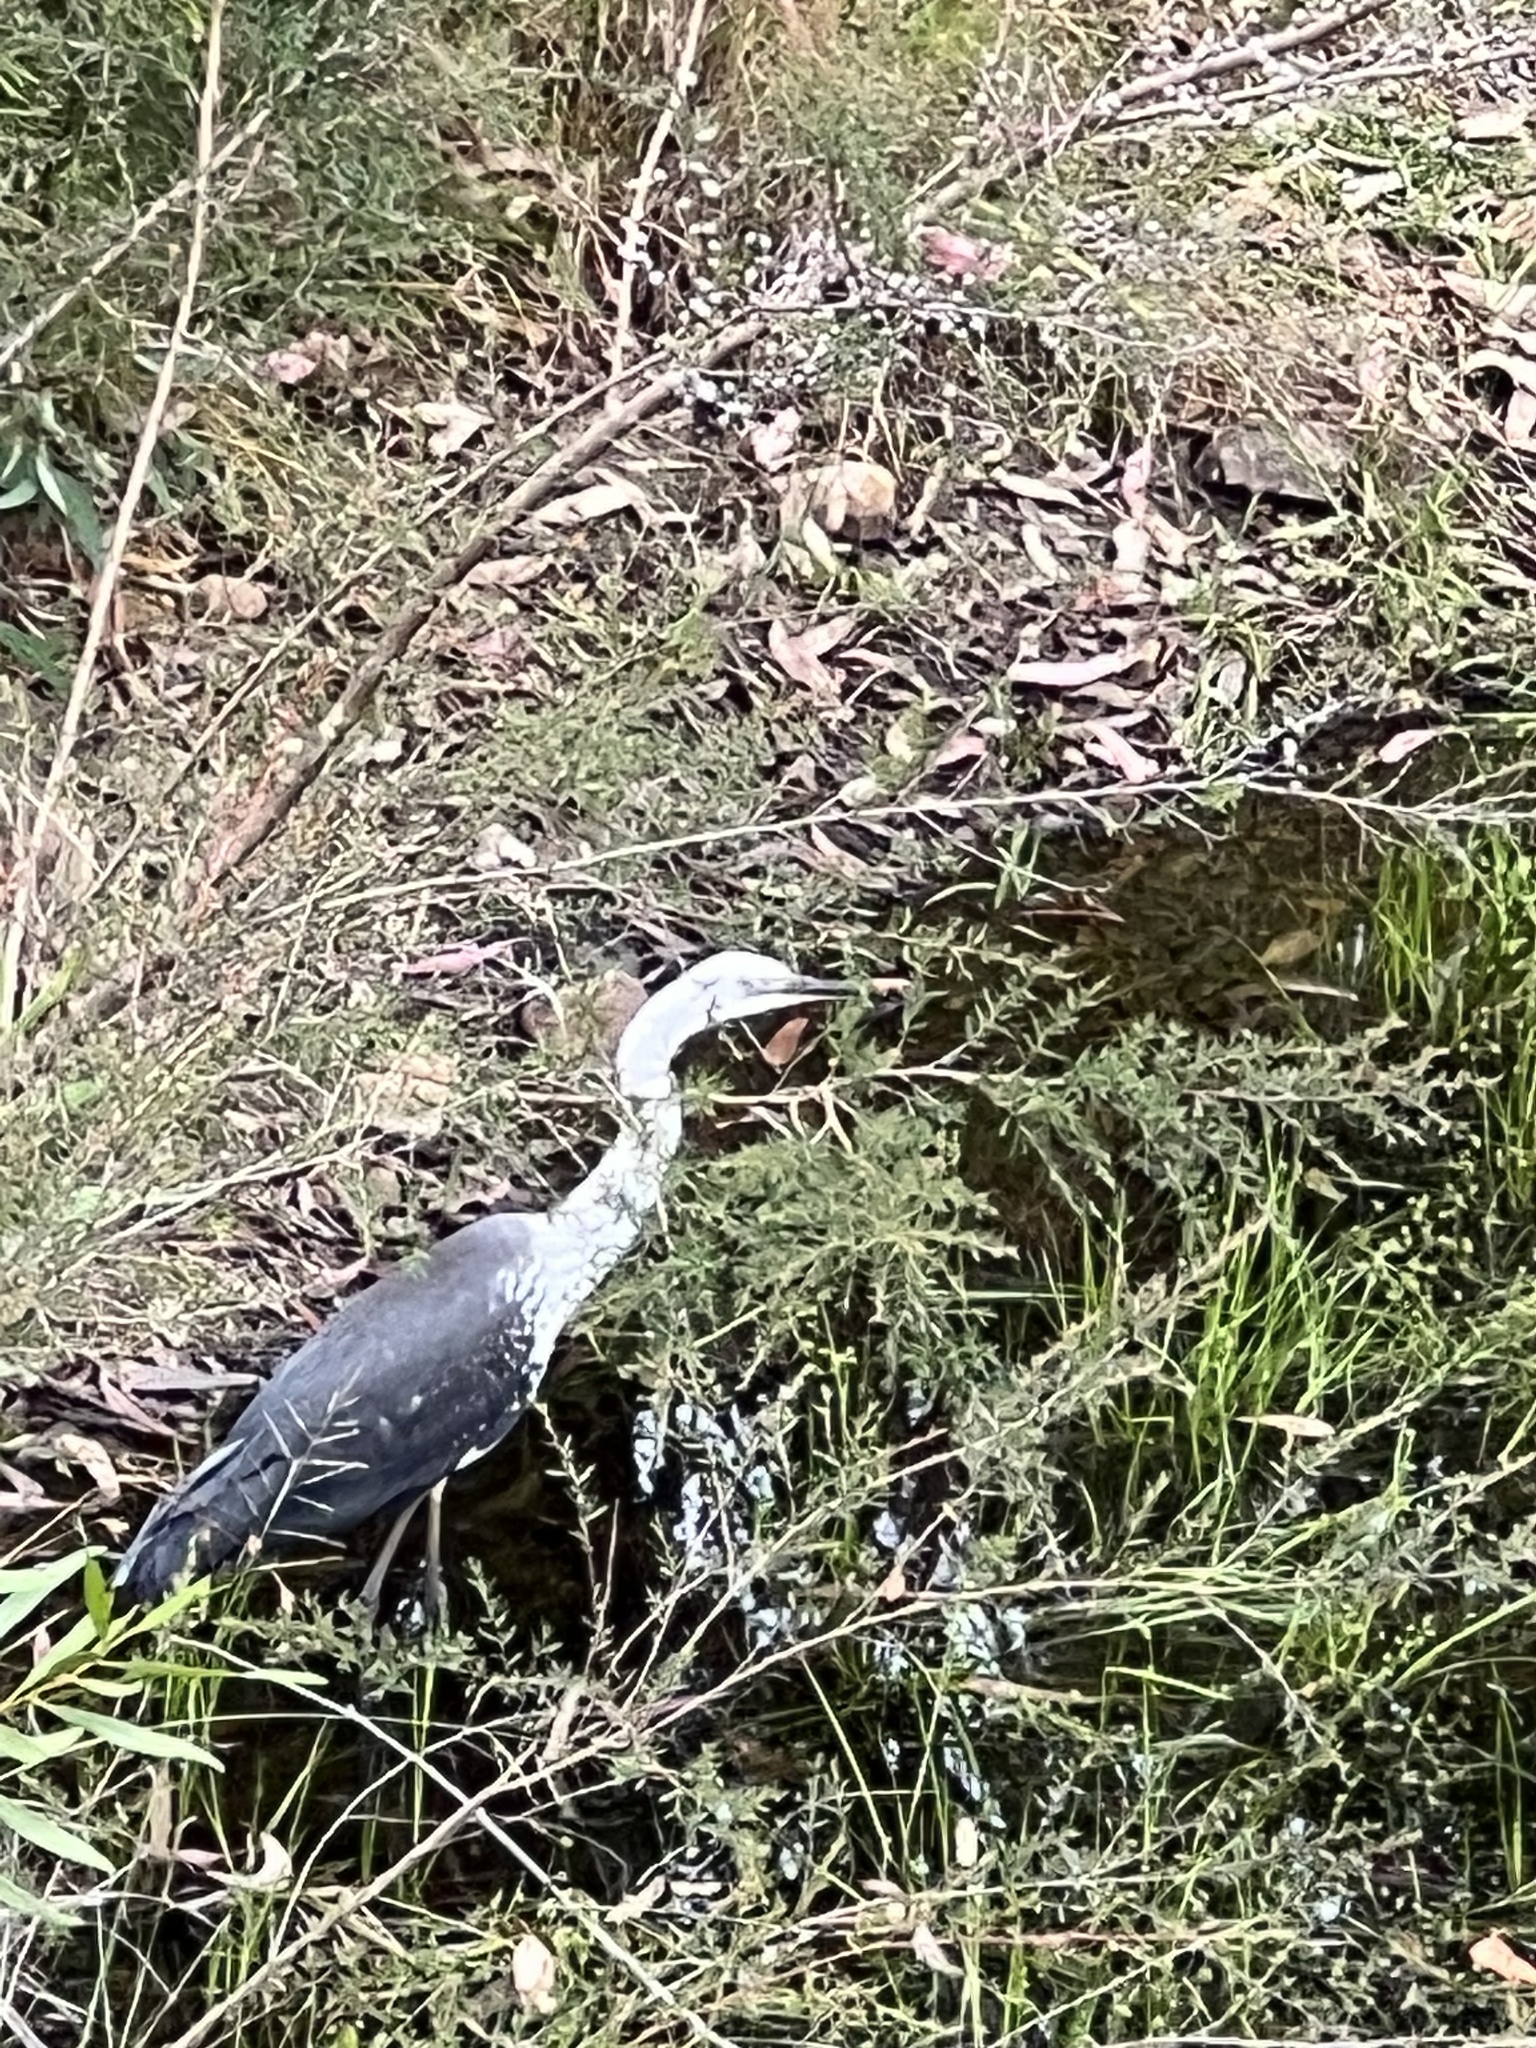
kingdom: Animalia
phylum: Chordata
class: Aves
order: Pelecaniformes
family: Ardeidae
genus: Ardea
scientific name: Ardea pacifica
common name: White-necked heron
